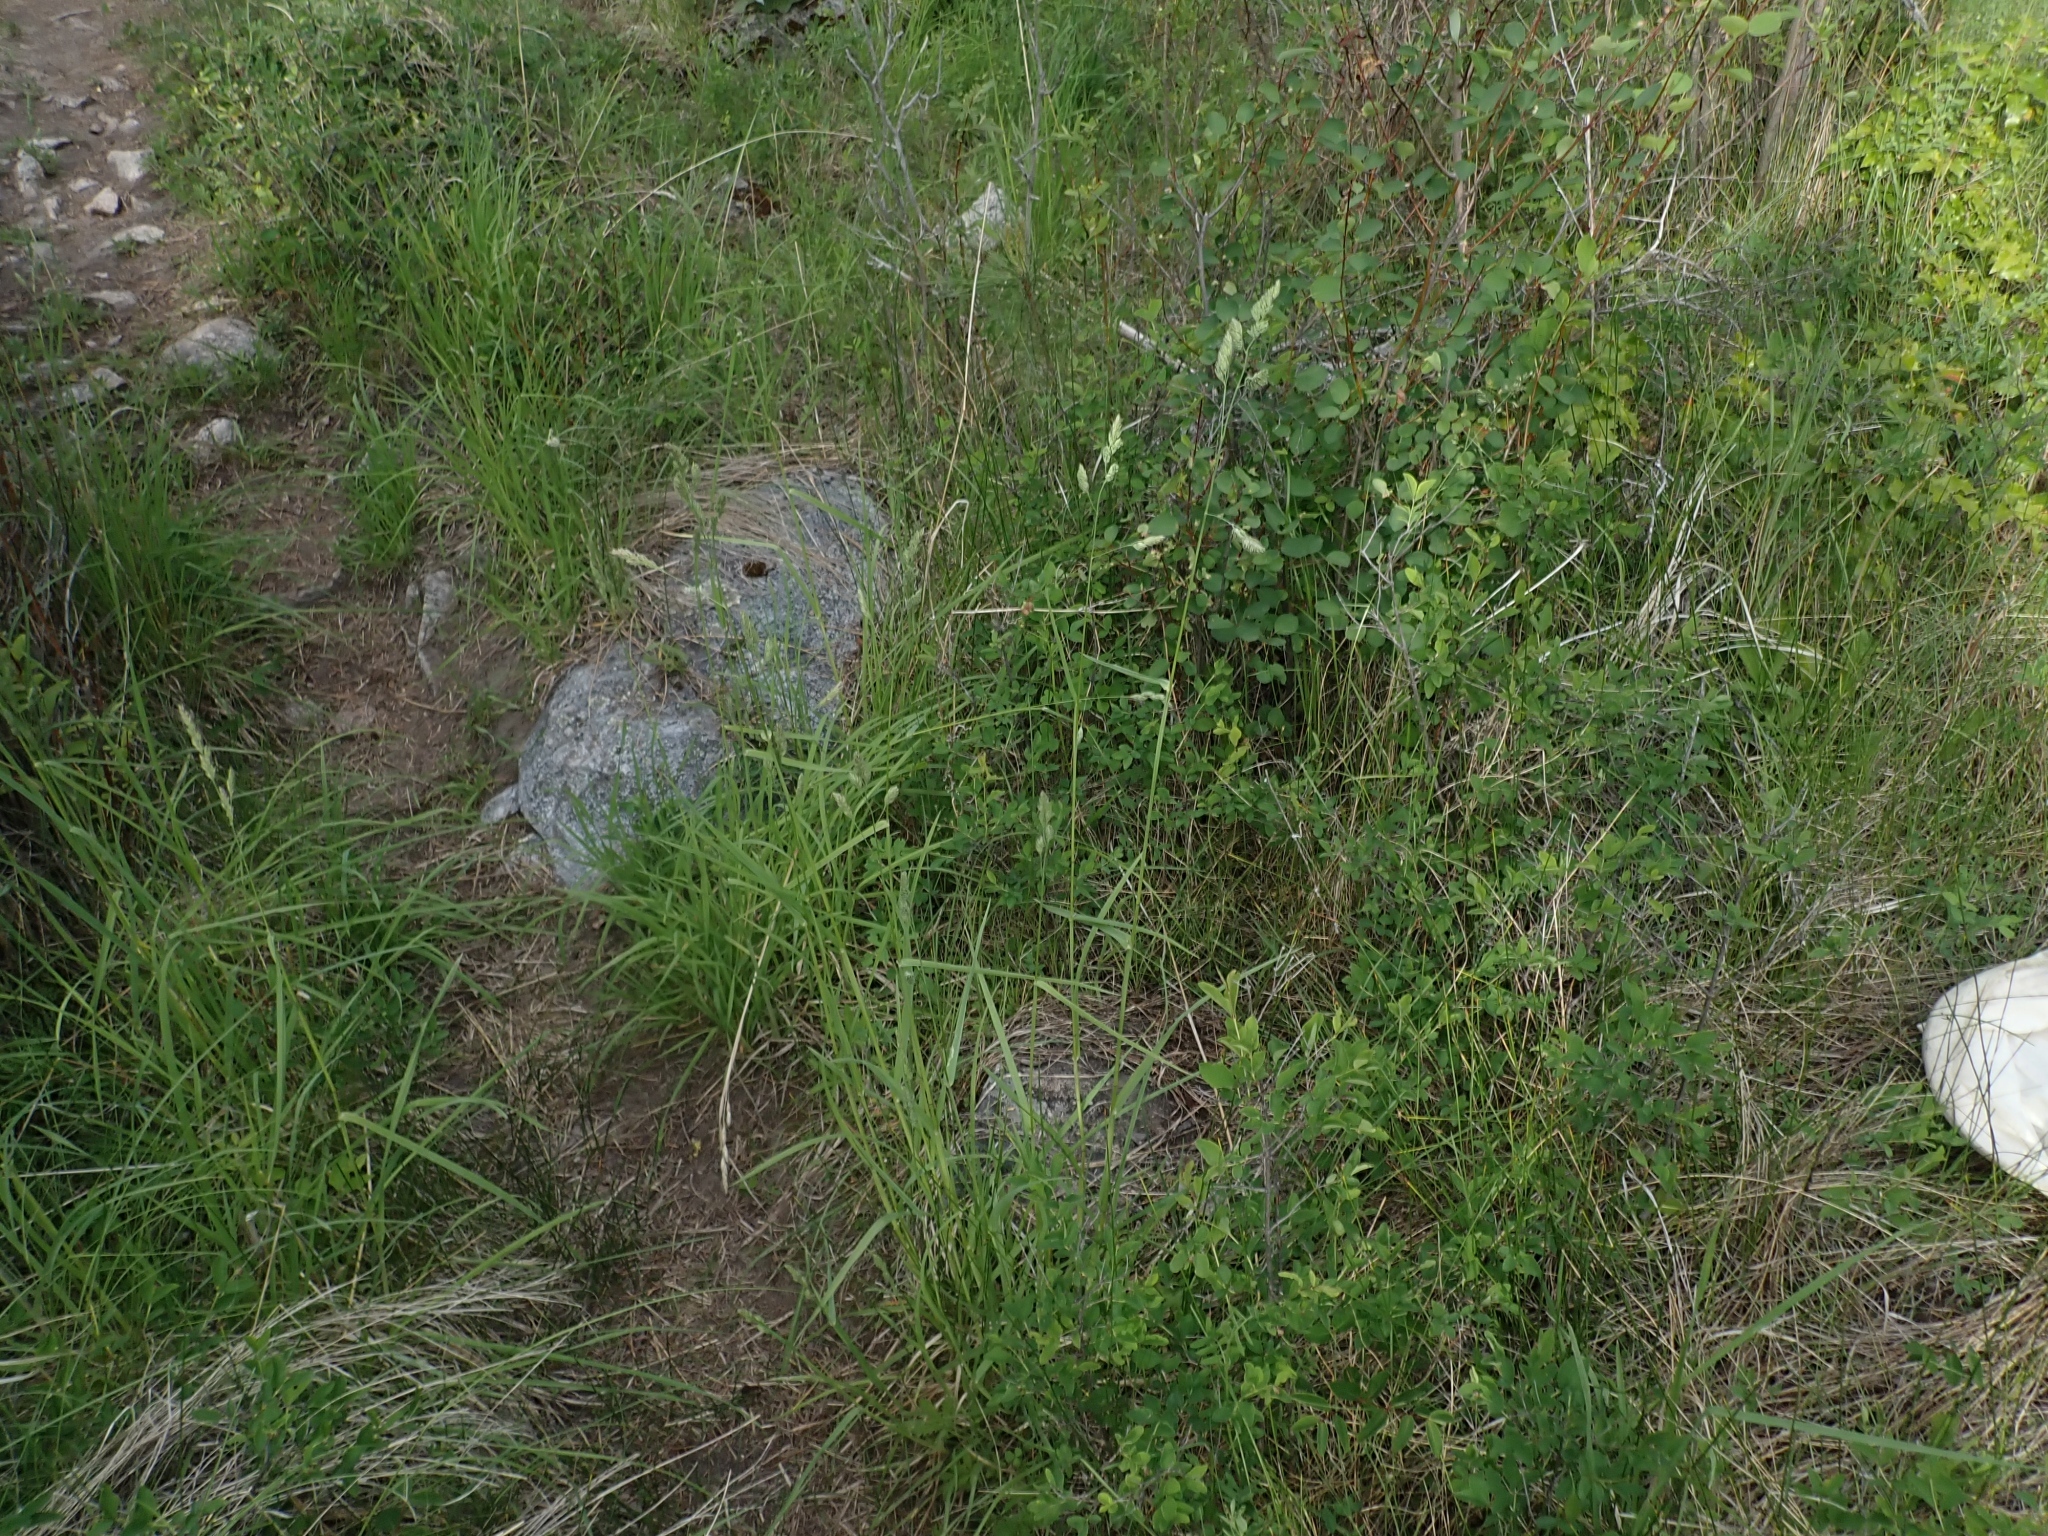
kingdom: Plantae
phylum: Tracheophyta
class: Liliopsida
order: Poales
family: Poaceae
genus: Dactylis
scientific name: Dactylis glomerata
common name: Orchardgrass
